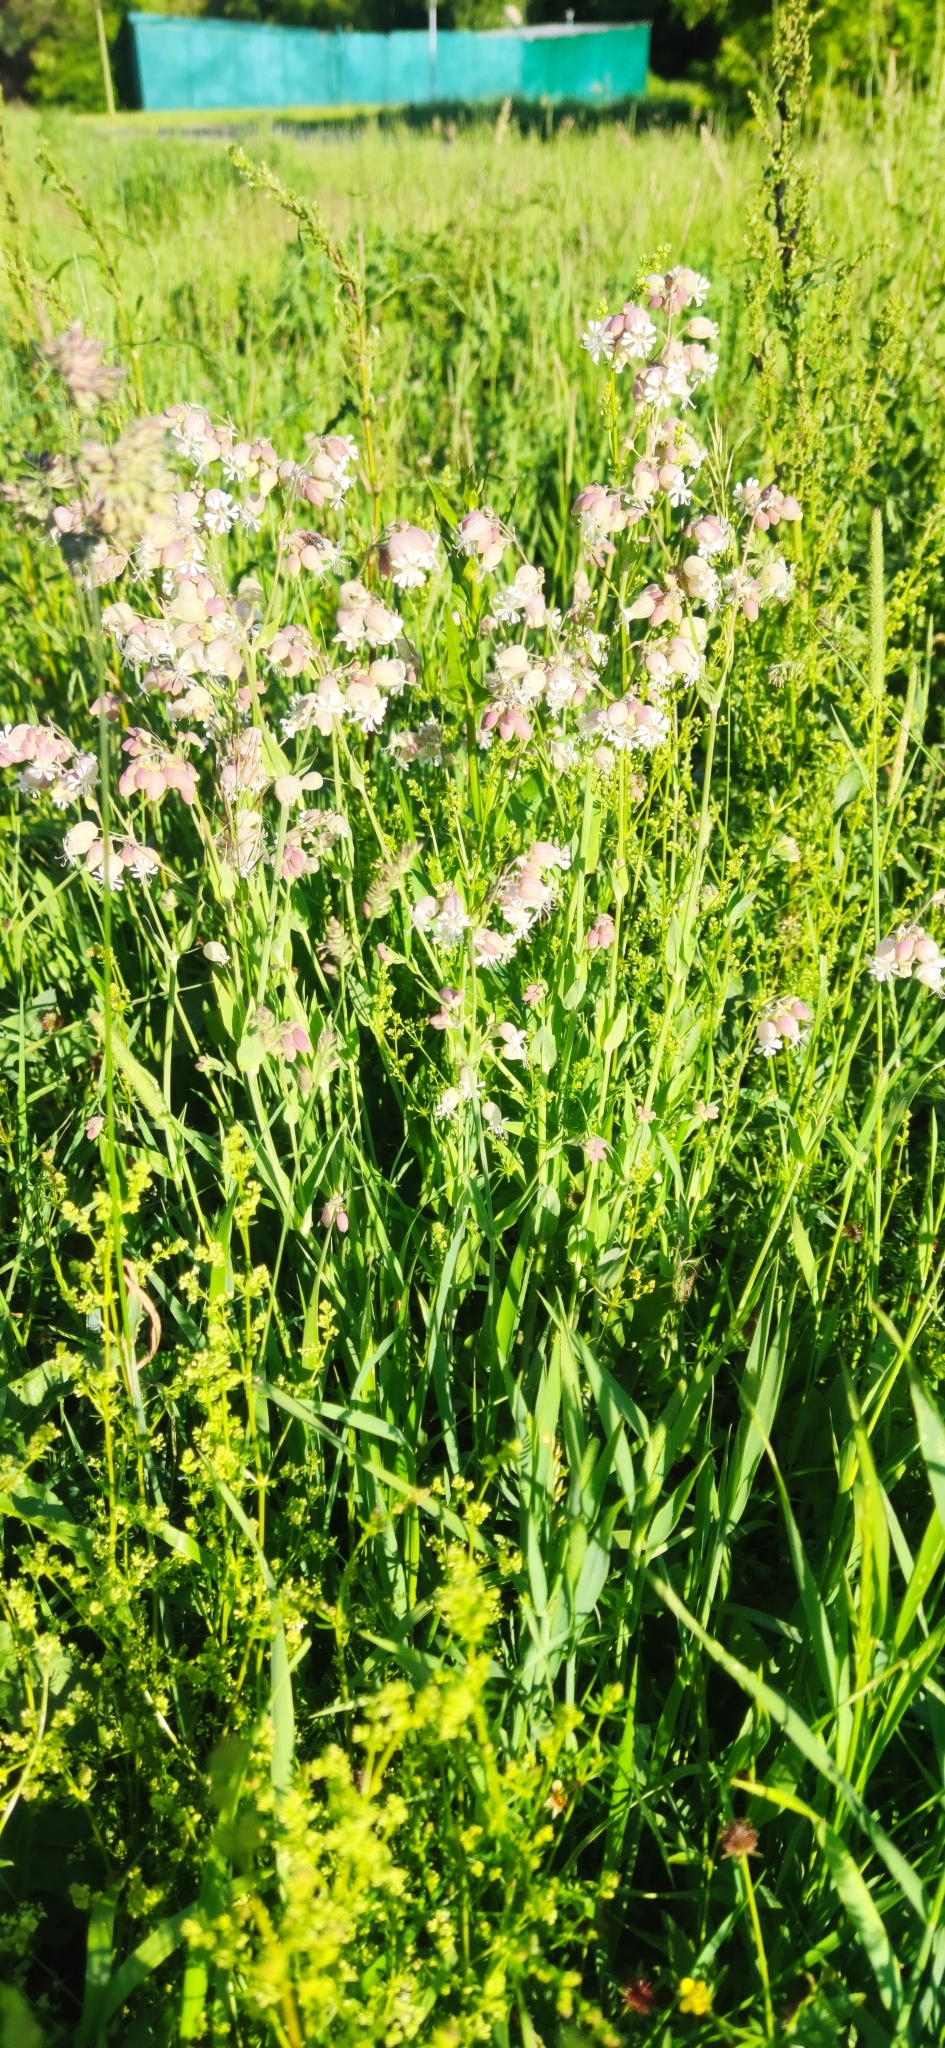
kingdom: Plantae
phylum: Tracheophyta
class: Magnoliopsida
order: Caryophyllales
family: Caryophyllaceae
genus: Silene
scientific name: Silene vulgaris
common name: Bladder campion
